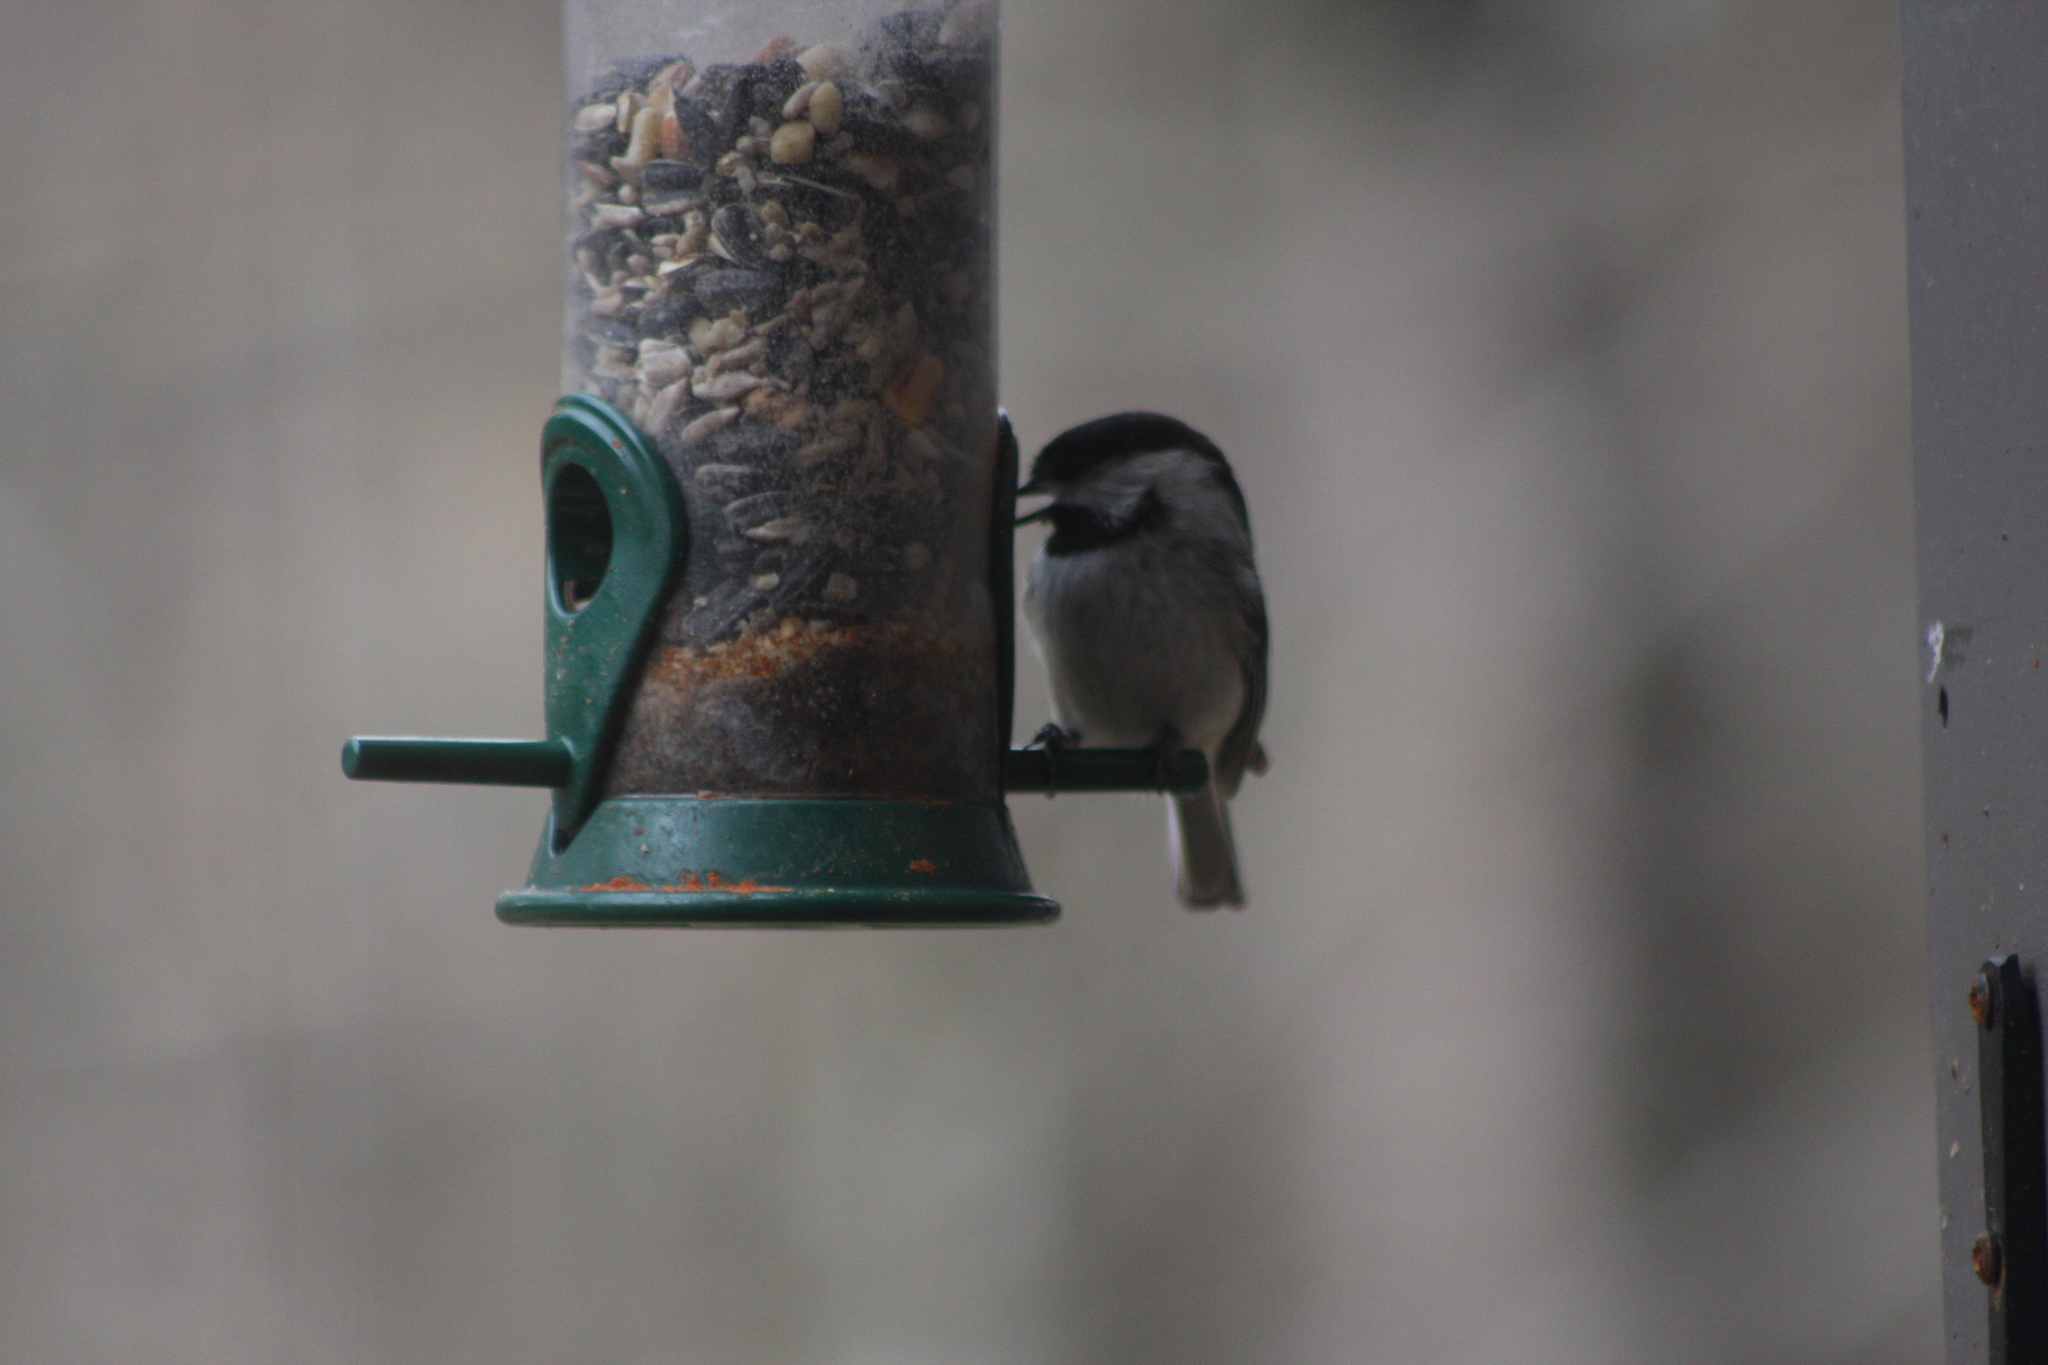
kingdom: Animalia
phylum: Chordata
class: Aves
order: Passeriformes
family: Paridae
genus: Poecile
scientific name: Poecile atricapillus
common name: Black-capped chickadee
